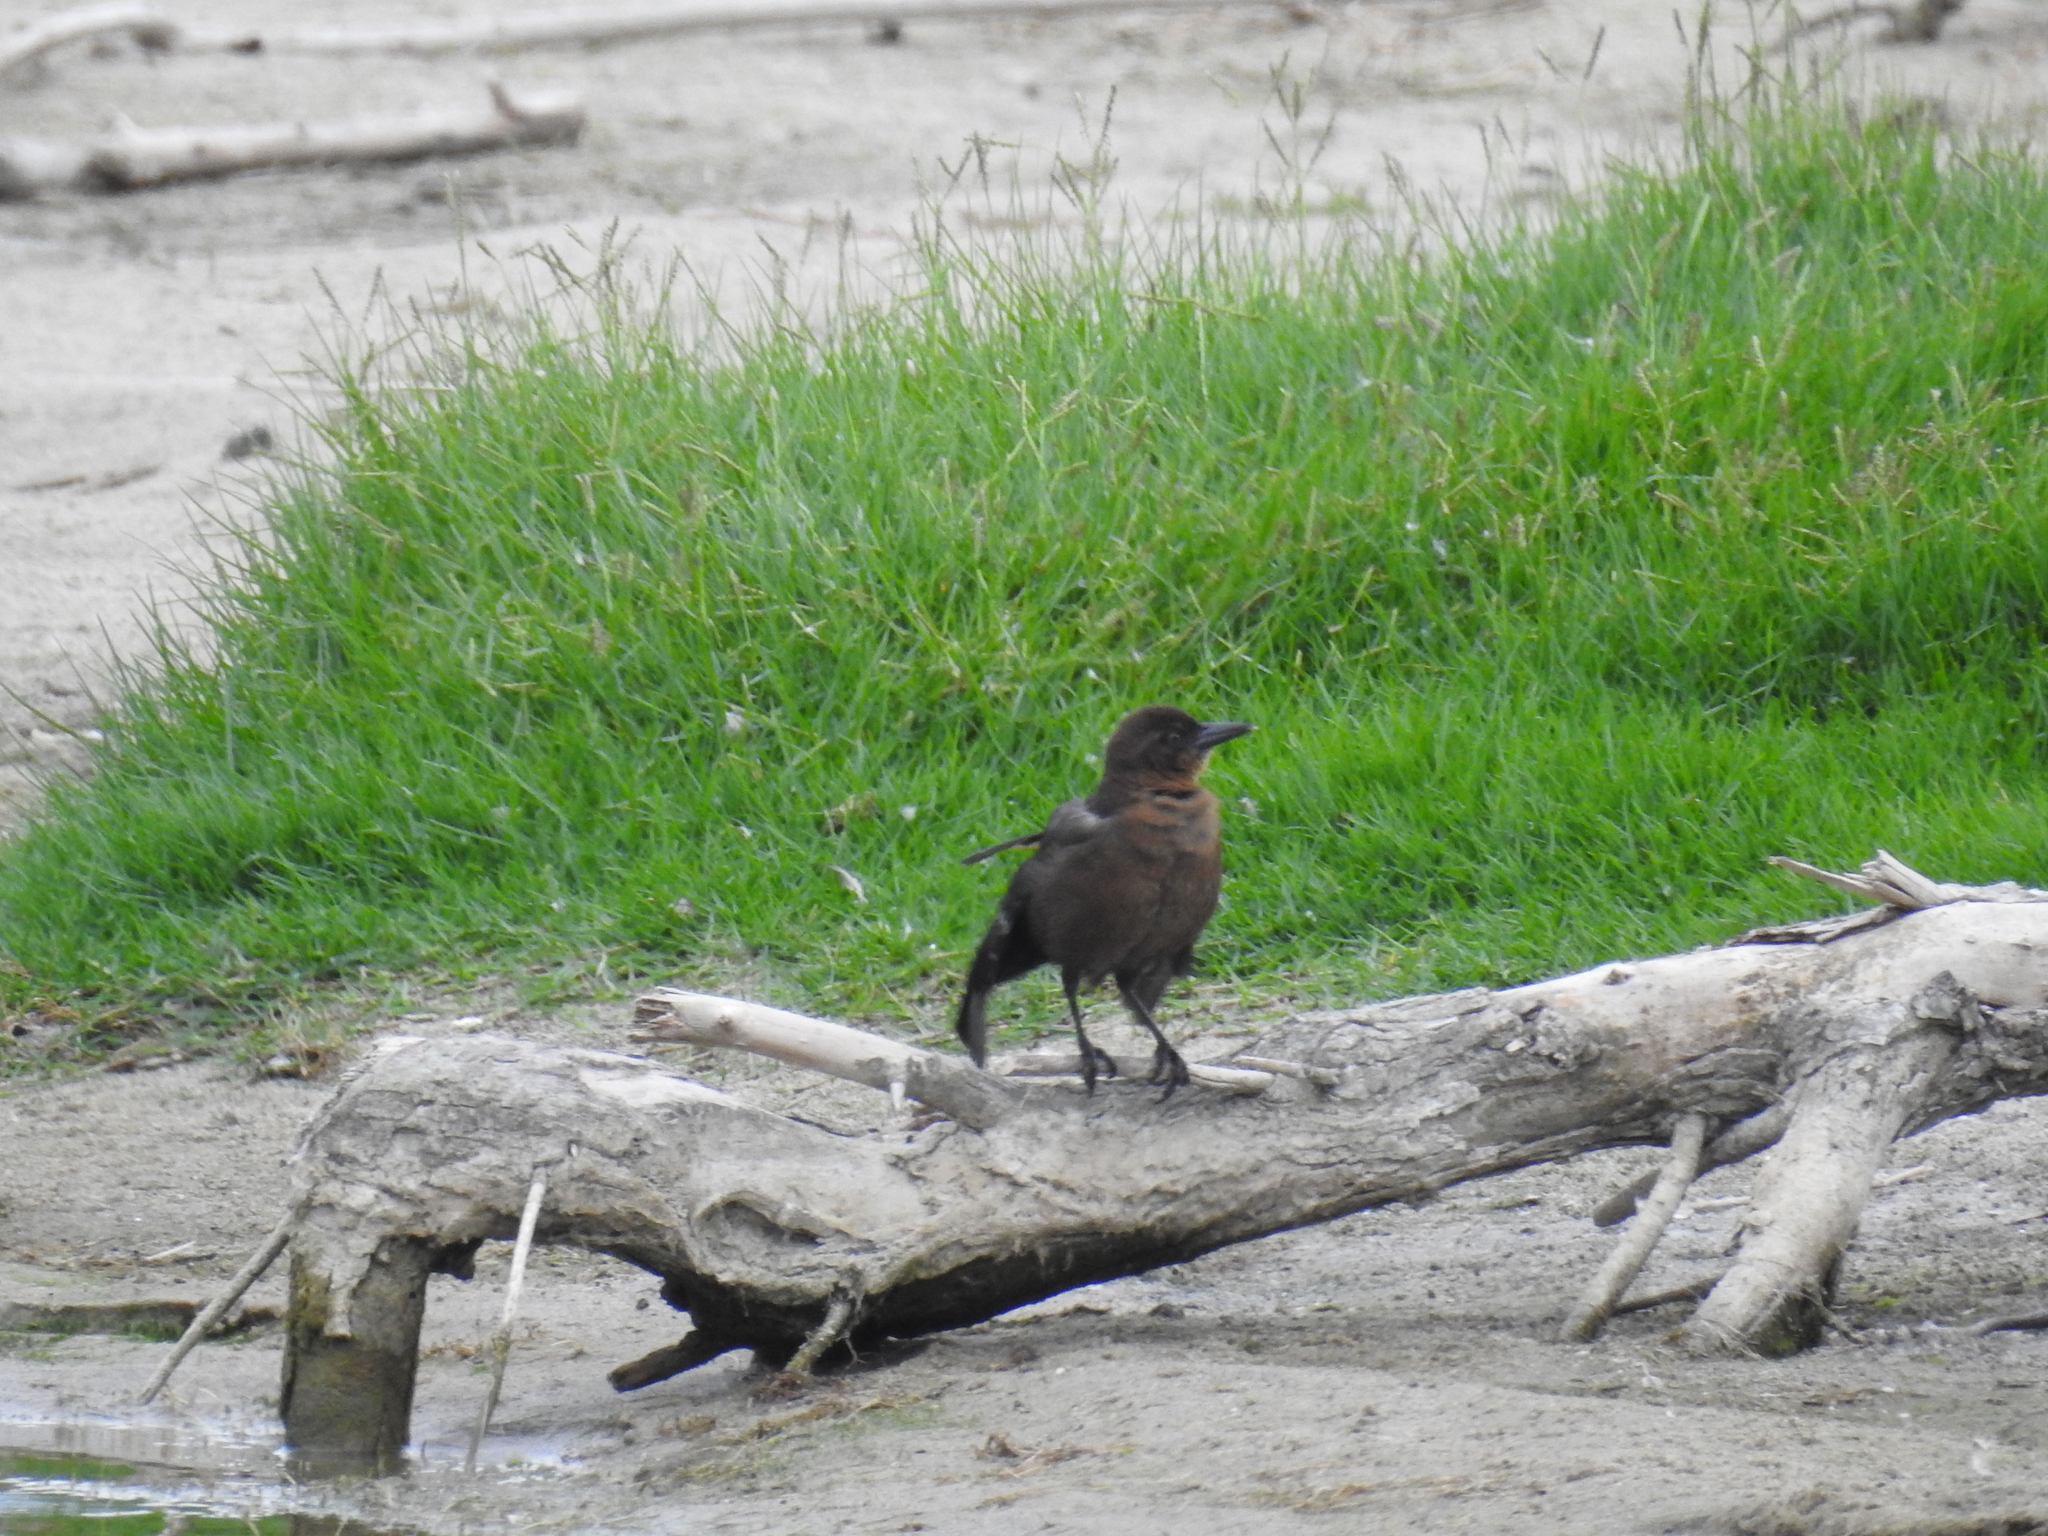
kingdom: Animalia
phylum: Chordata
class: Aves
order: Passeriformes
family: Icteridae
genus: Quiscalus
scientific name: Quiscalus mexicanus
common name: Great-tailed grackle
